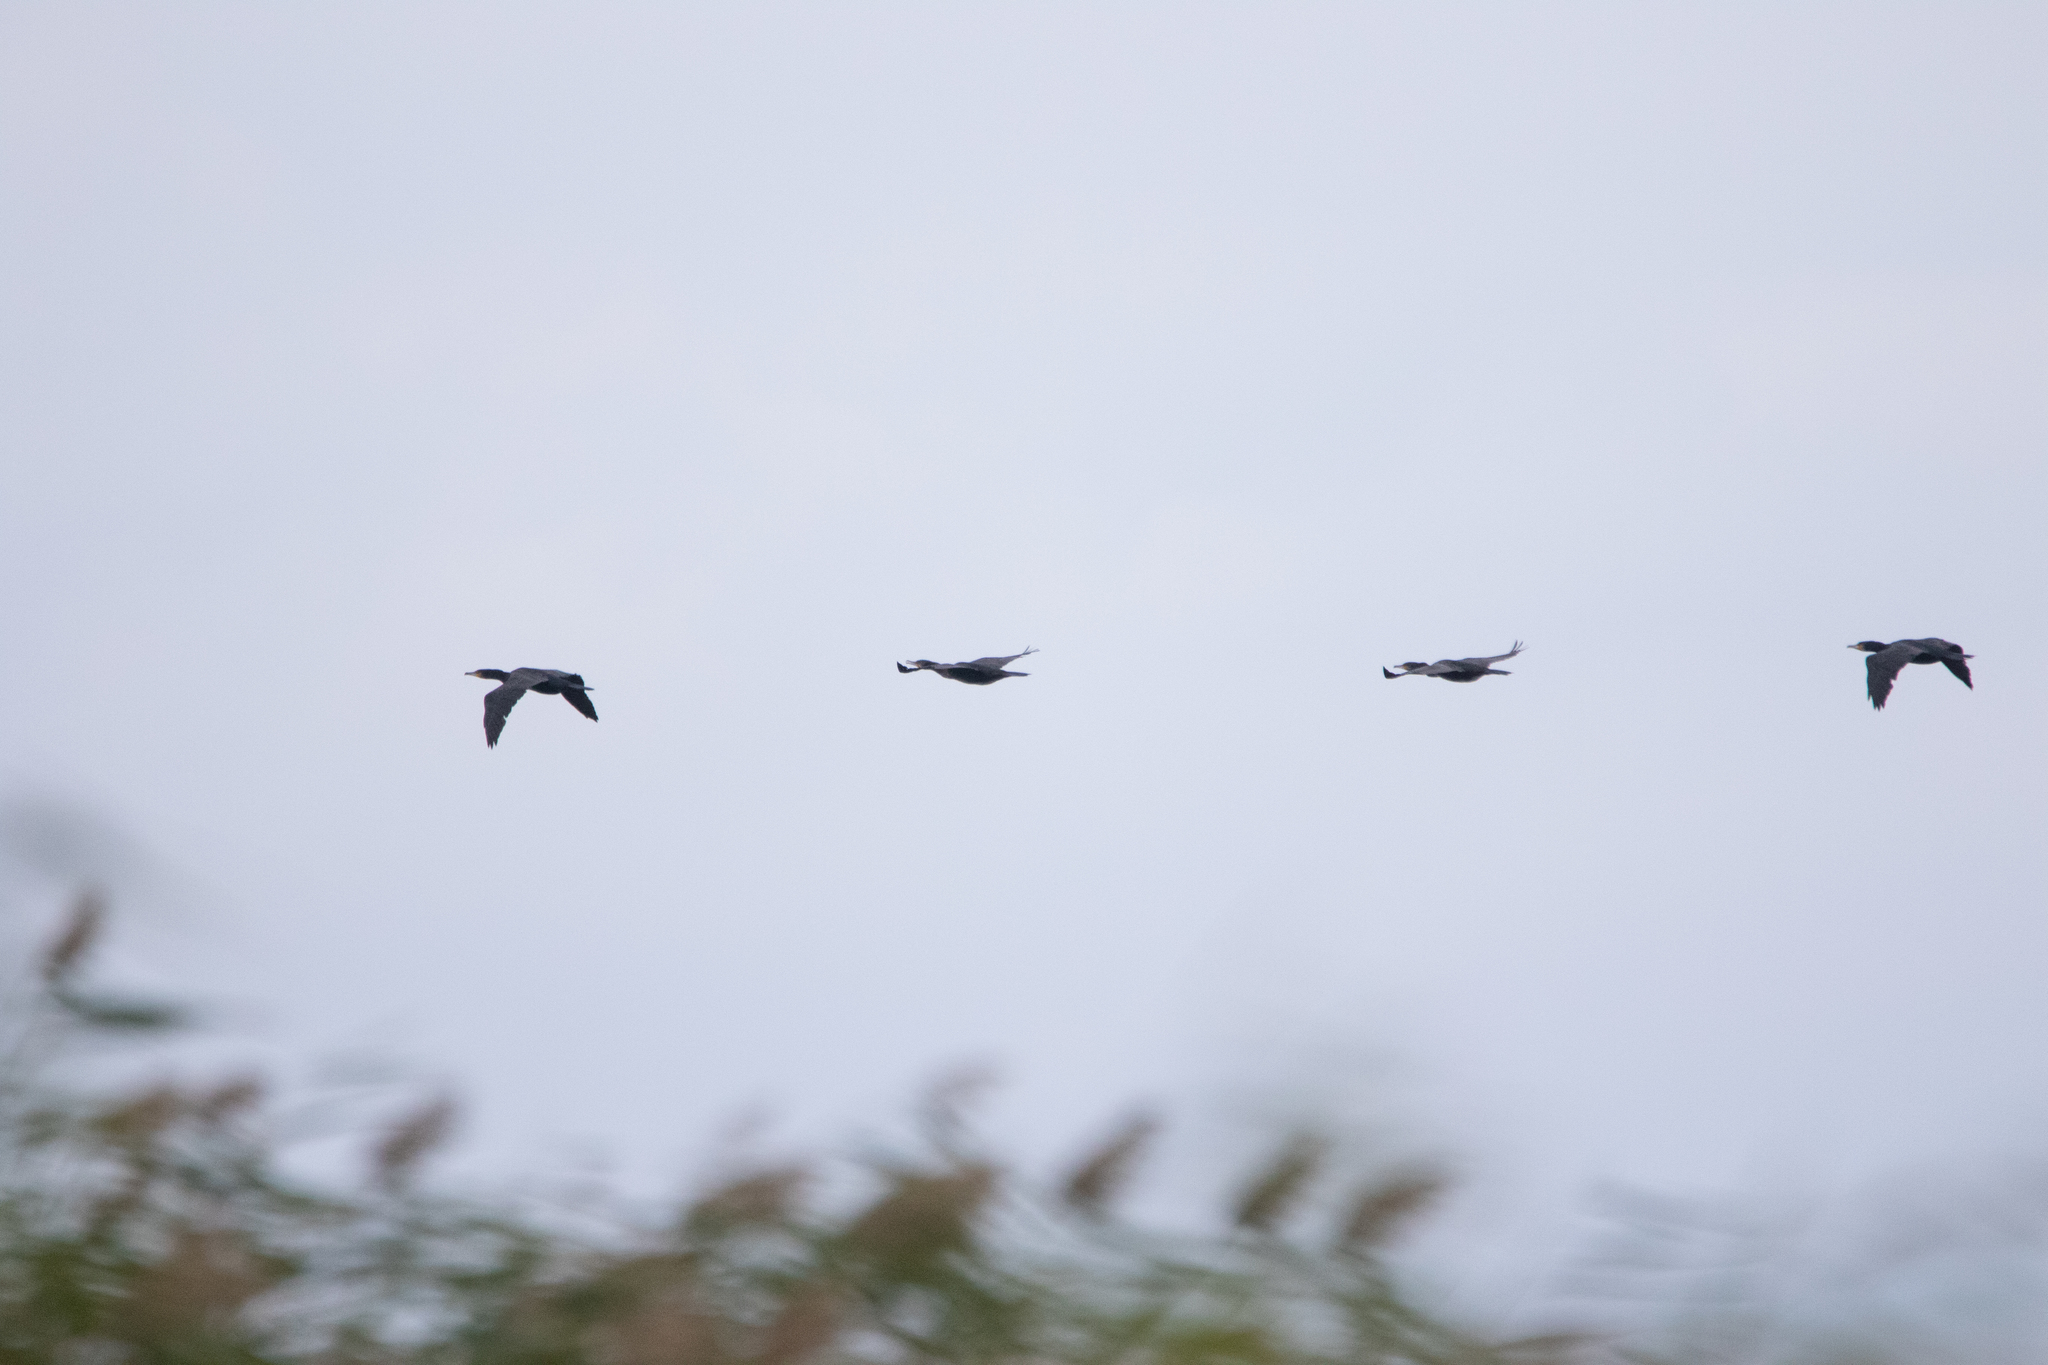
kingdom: Animalia
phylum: Chordata
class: Aves
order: Suliformes
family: Phalacrocoracidae
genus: Phalacrocorax
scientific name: Phalacrocorax carbo
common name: Great cormorant
